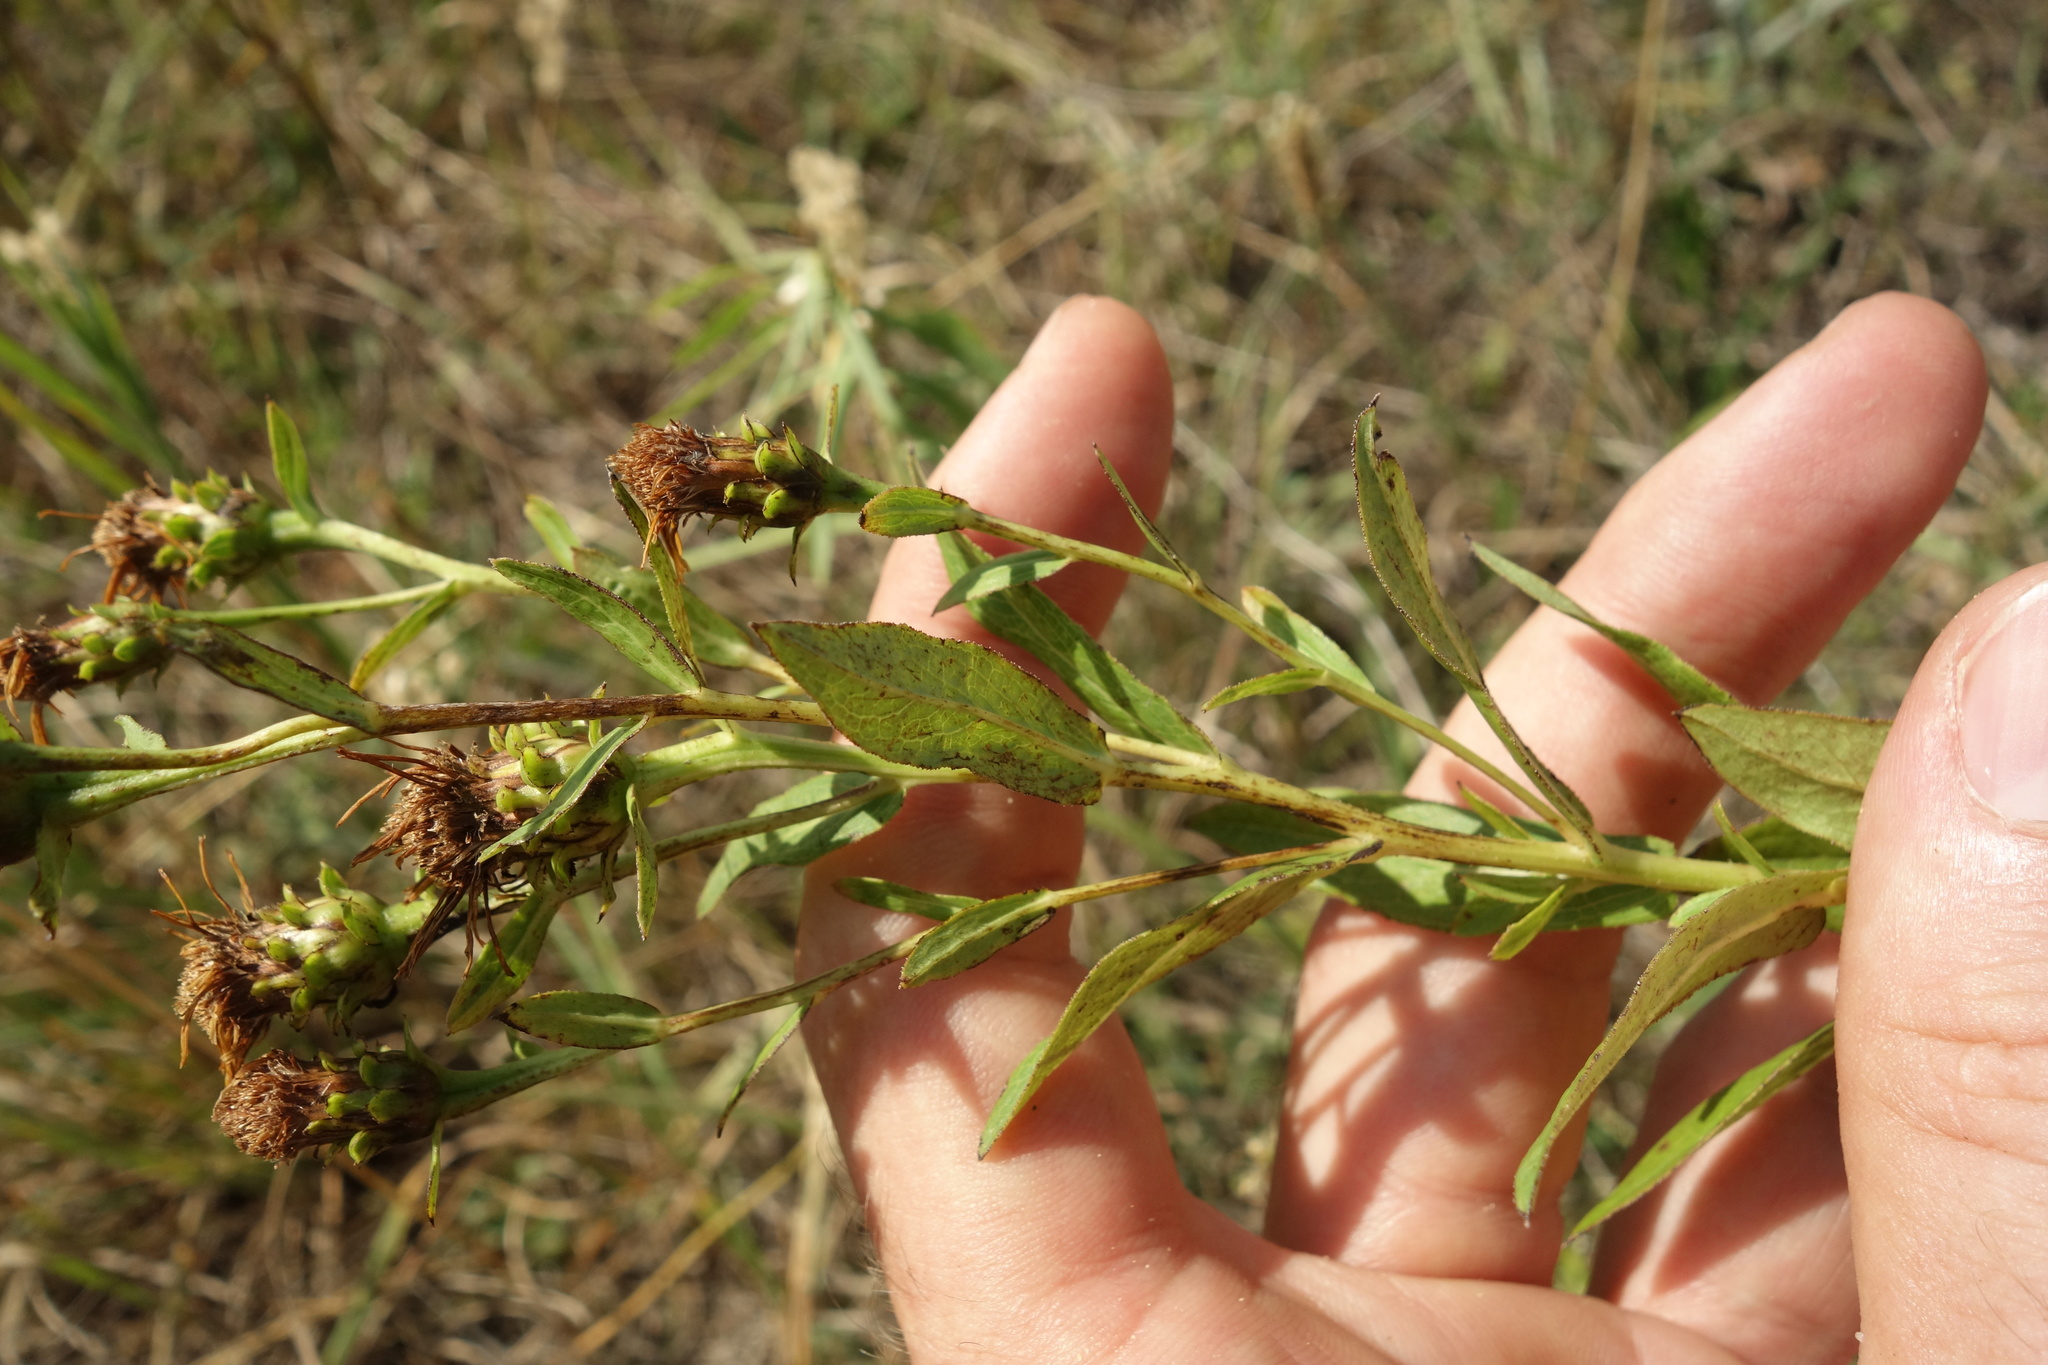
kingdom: Plantae
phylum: Tracheophyta
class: Magnoliopsida
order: Asterales
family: Asteraceae
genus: Pentanema
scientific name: Pentanema salicinum
